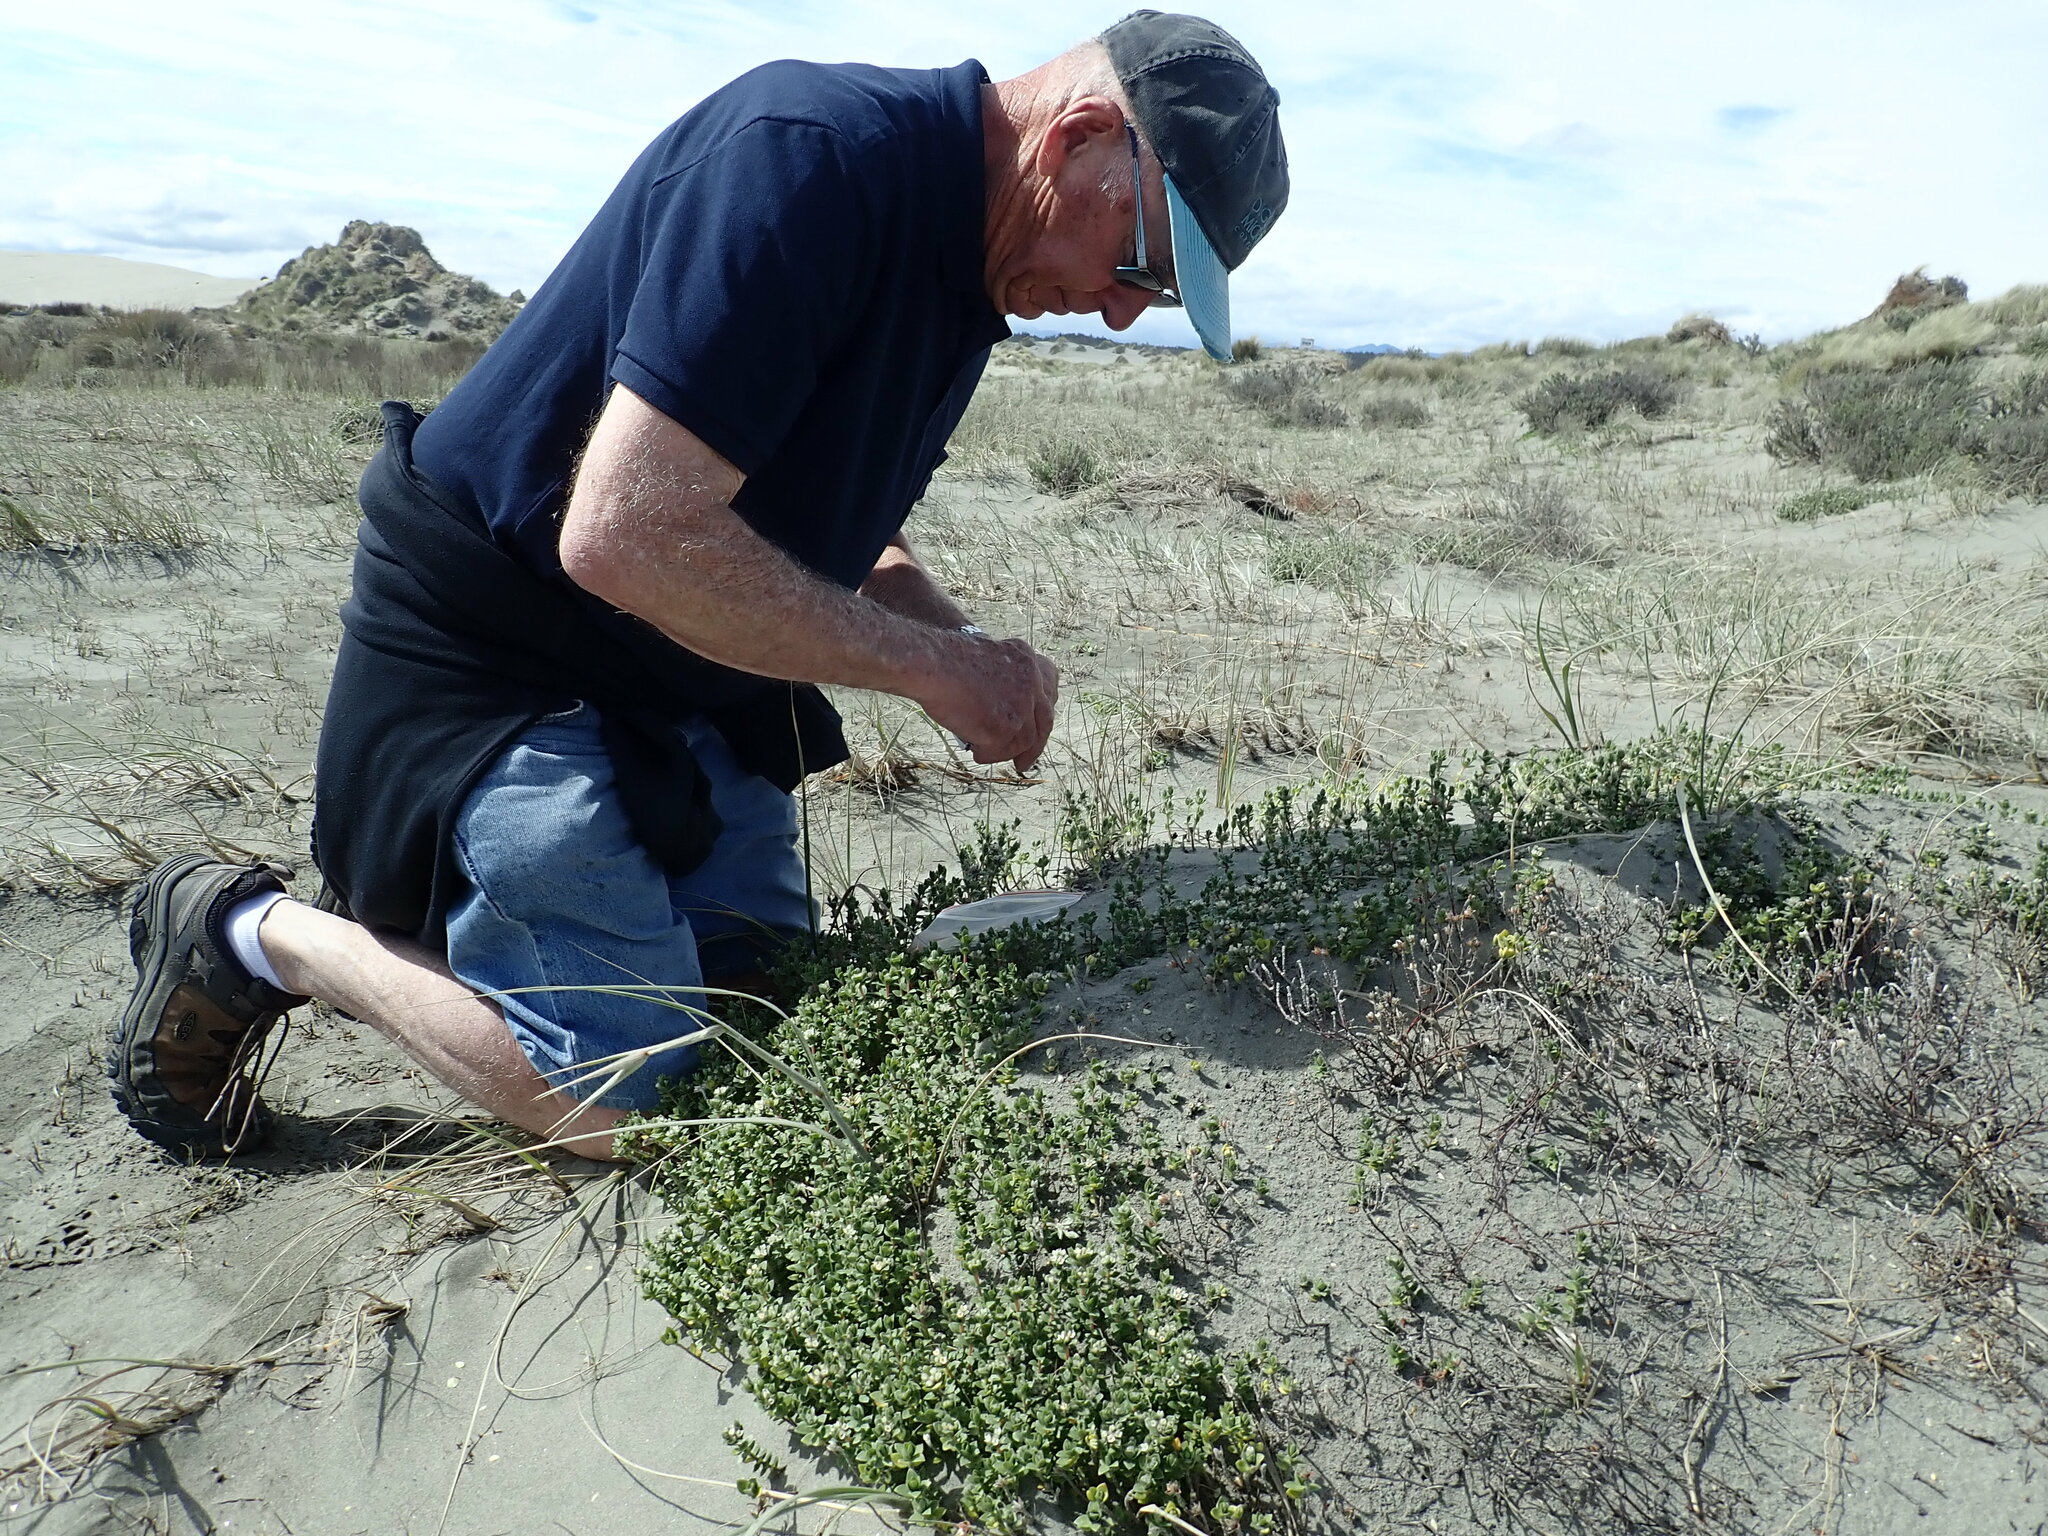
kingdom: Plantae
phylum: Tracheophyta
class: Magnoliopsida
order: Malvales
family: Thymelaeaceae
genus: Pimelea
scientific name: Pimelea villosa
